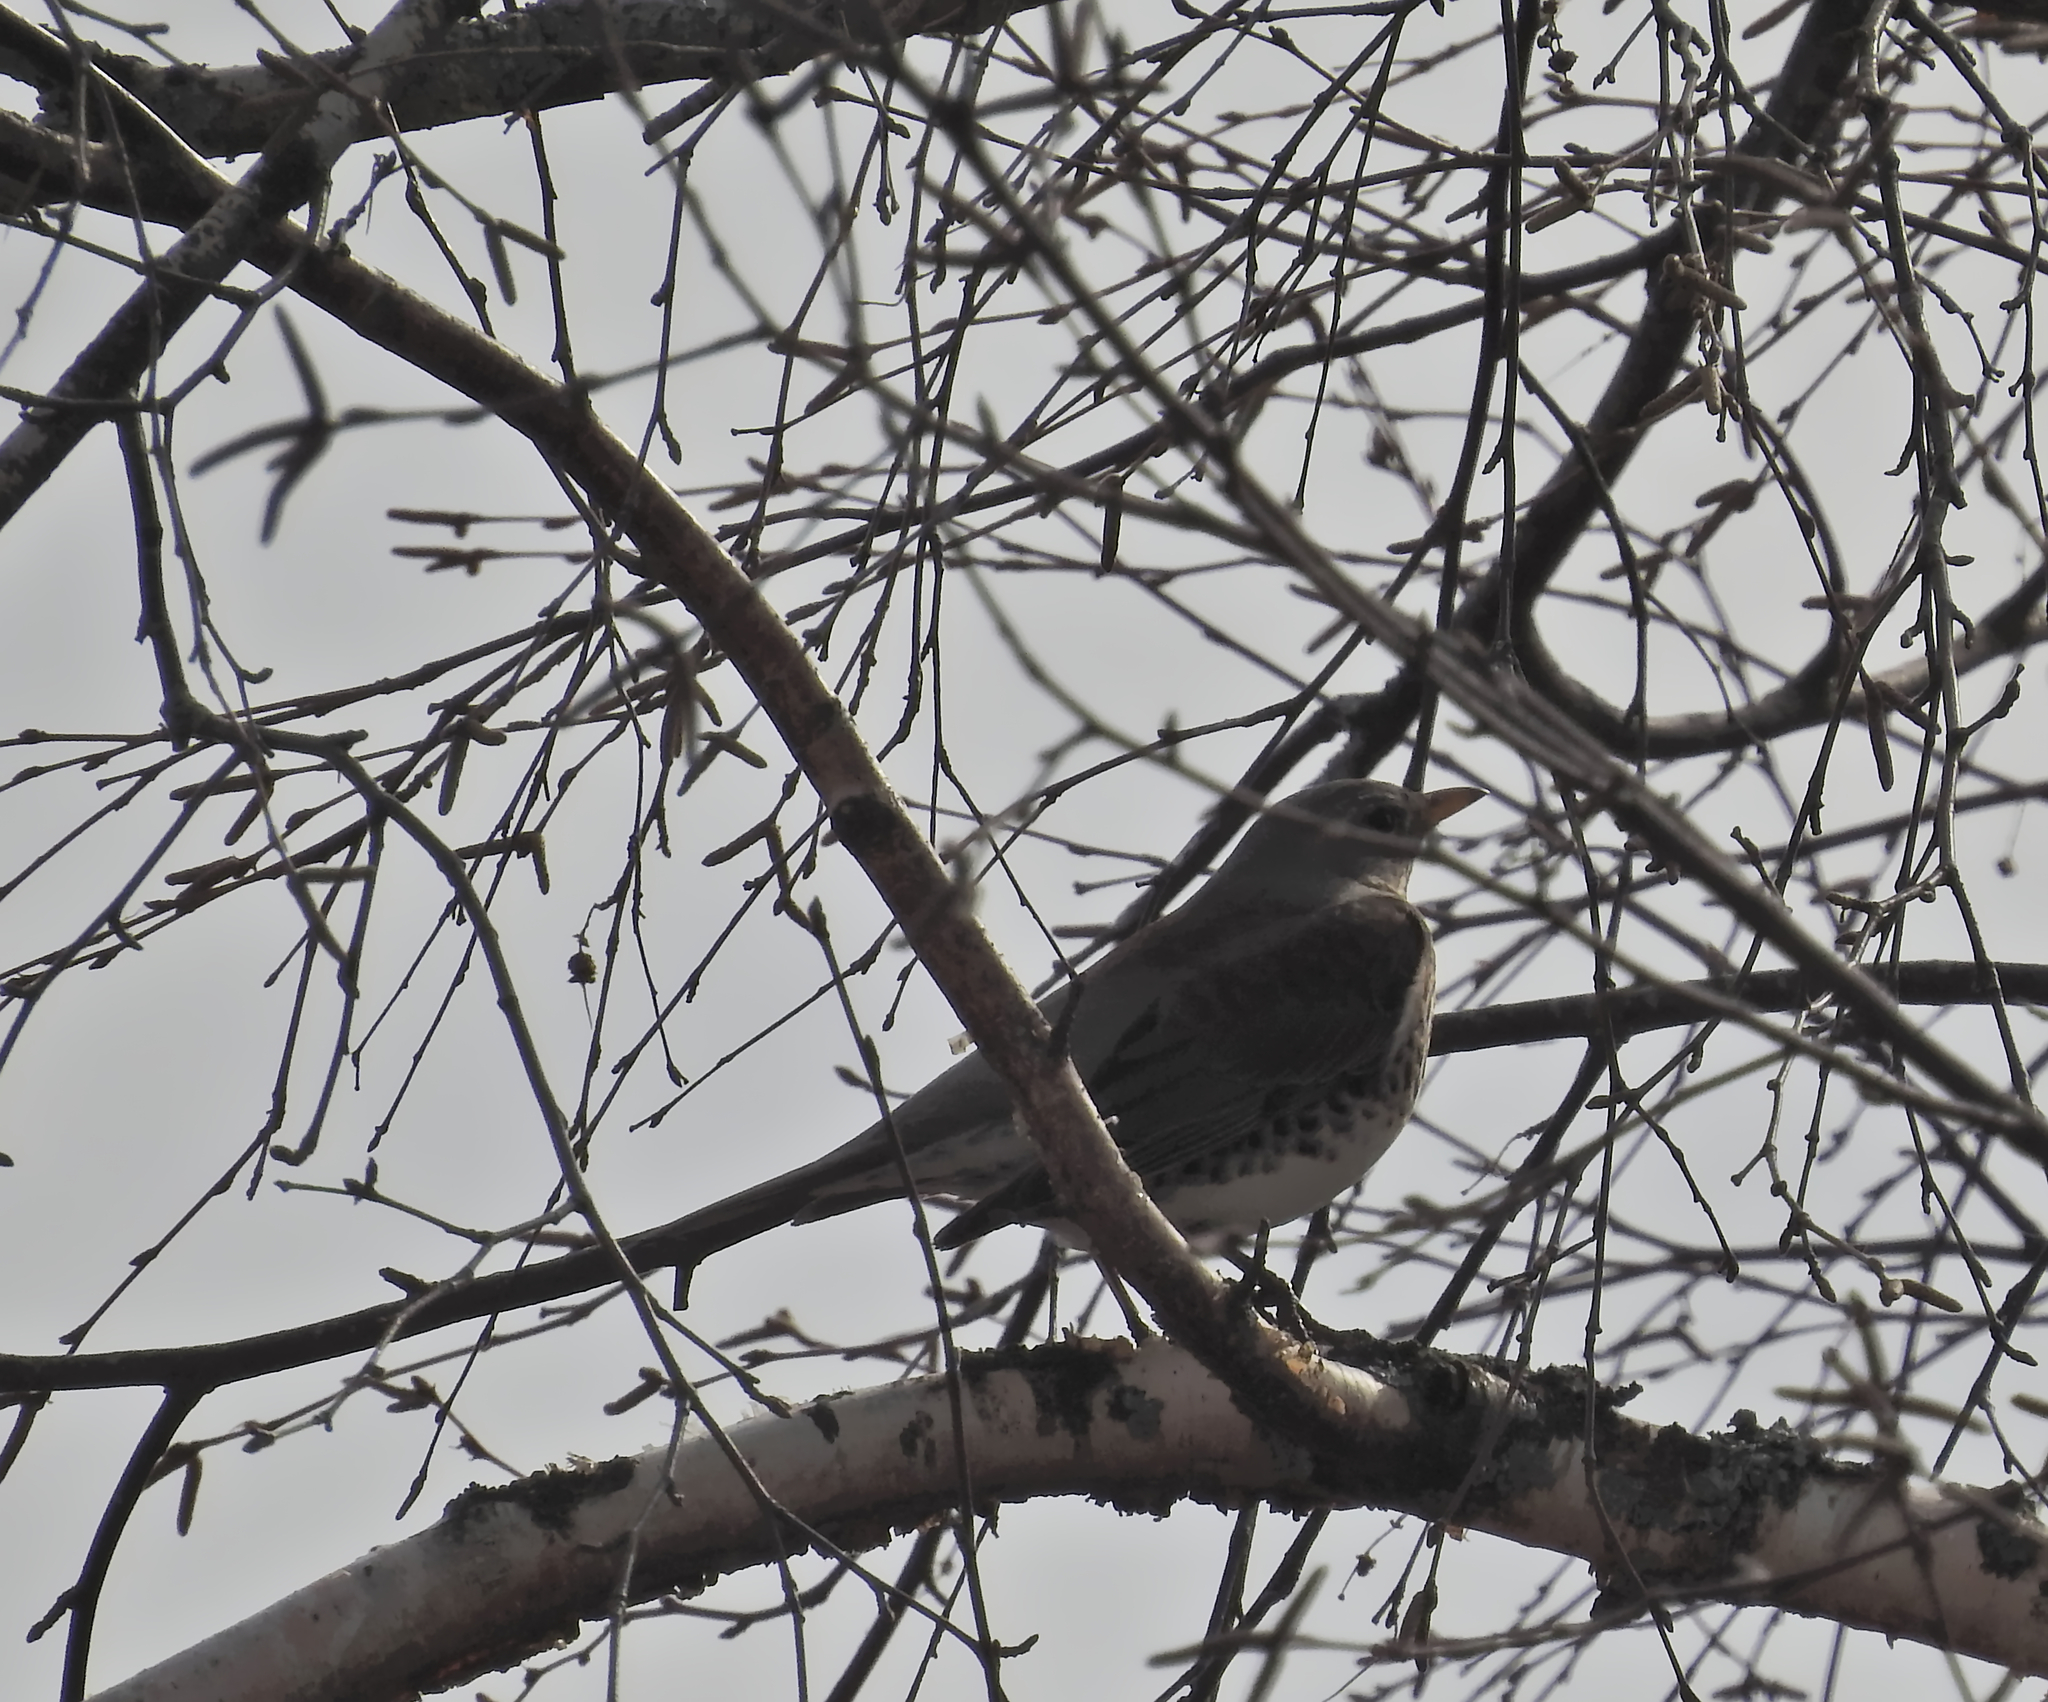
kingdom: Animalia
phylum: Chordata
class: Aves
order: Passeriformes
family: Turdidae
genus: Turdus
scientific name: Turdus pilaris
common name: Fieldfare
